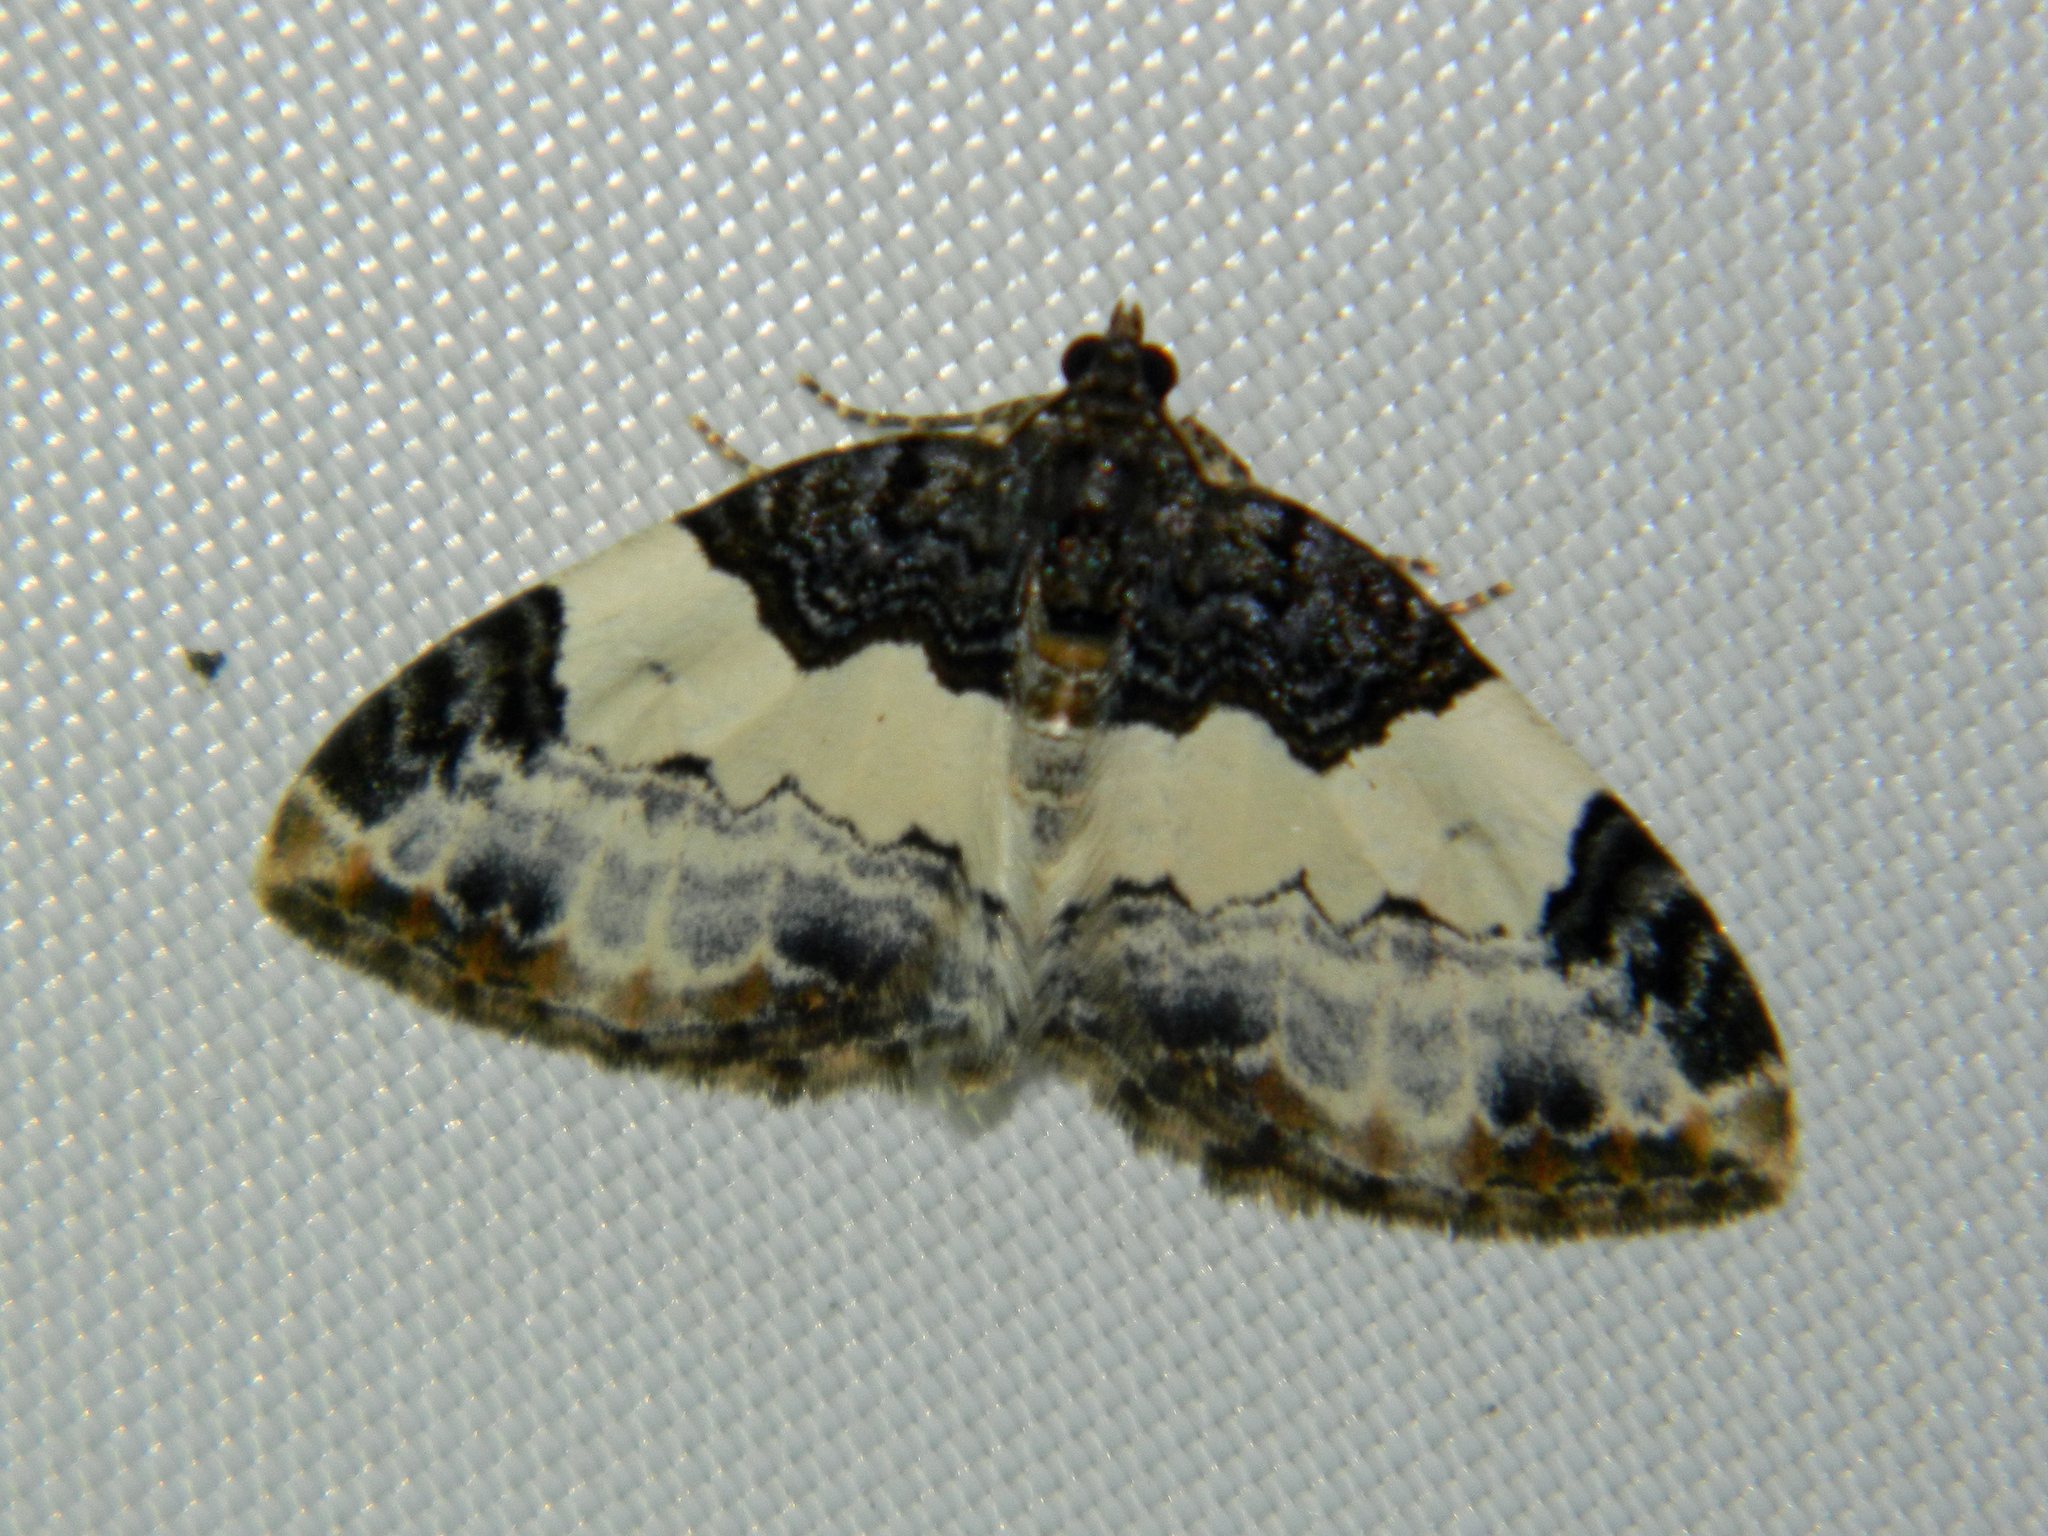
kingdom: Animalia
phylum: Arthropoda
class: Insecta
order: Lepidoptera
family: Geometridae
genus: Mesoleuca
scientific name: Mesoleuca ruficillata
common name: White-ribboned carpet moth
